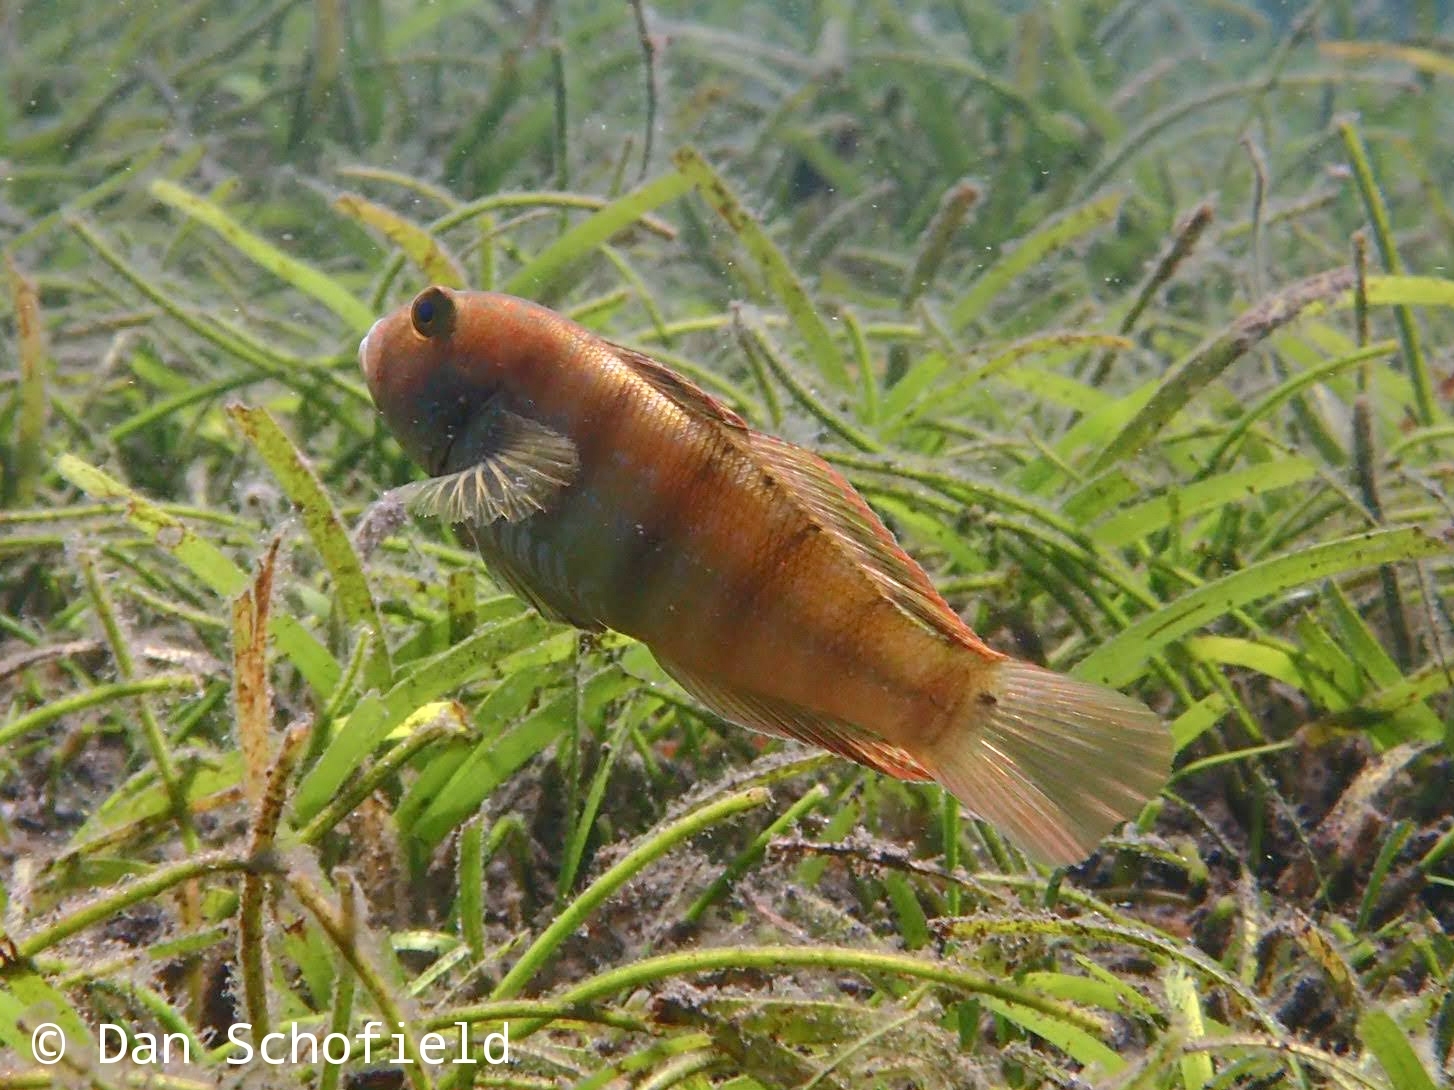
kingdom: Animalia
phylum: Chordata
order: Perciformes
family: Gobiidae
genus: Amblygobius
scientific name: Amblygobius sphynx
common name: Sphynx goby
